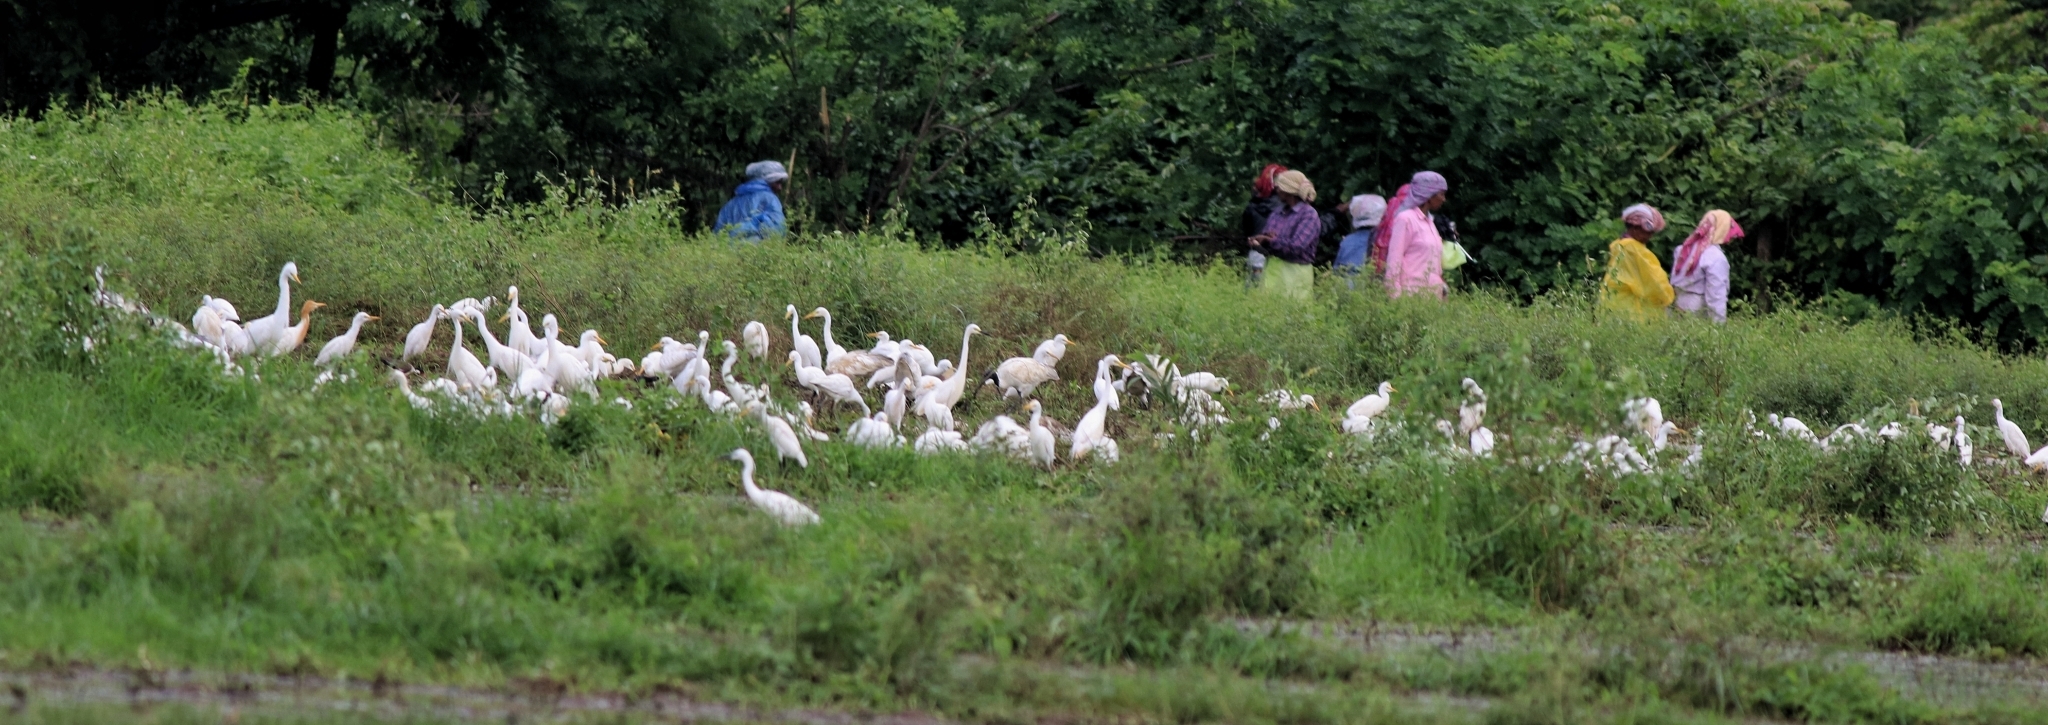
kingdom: Animalia
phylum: Chordata
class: Aves
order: Pelecaniformes
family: Ardeidae
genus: Bubulcus
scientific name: Bubulcus coromandus
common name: Eastern cattle egret
